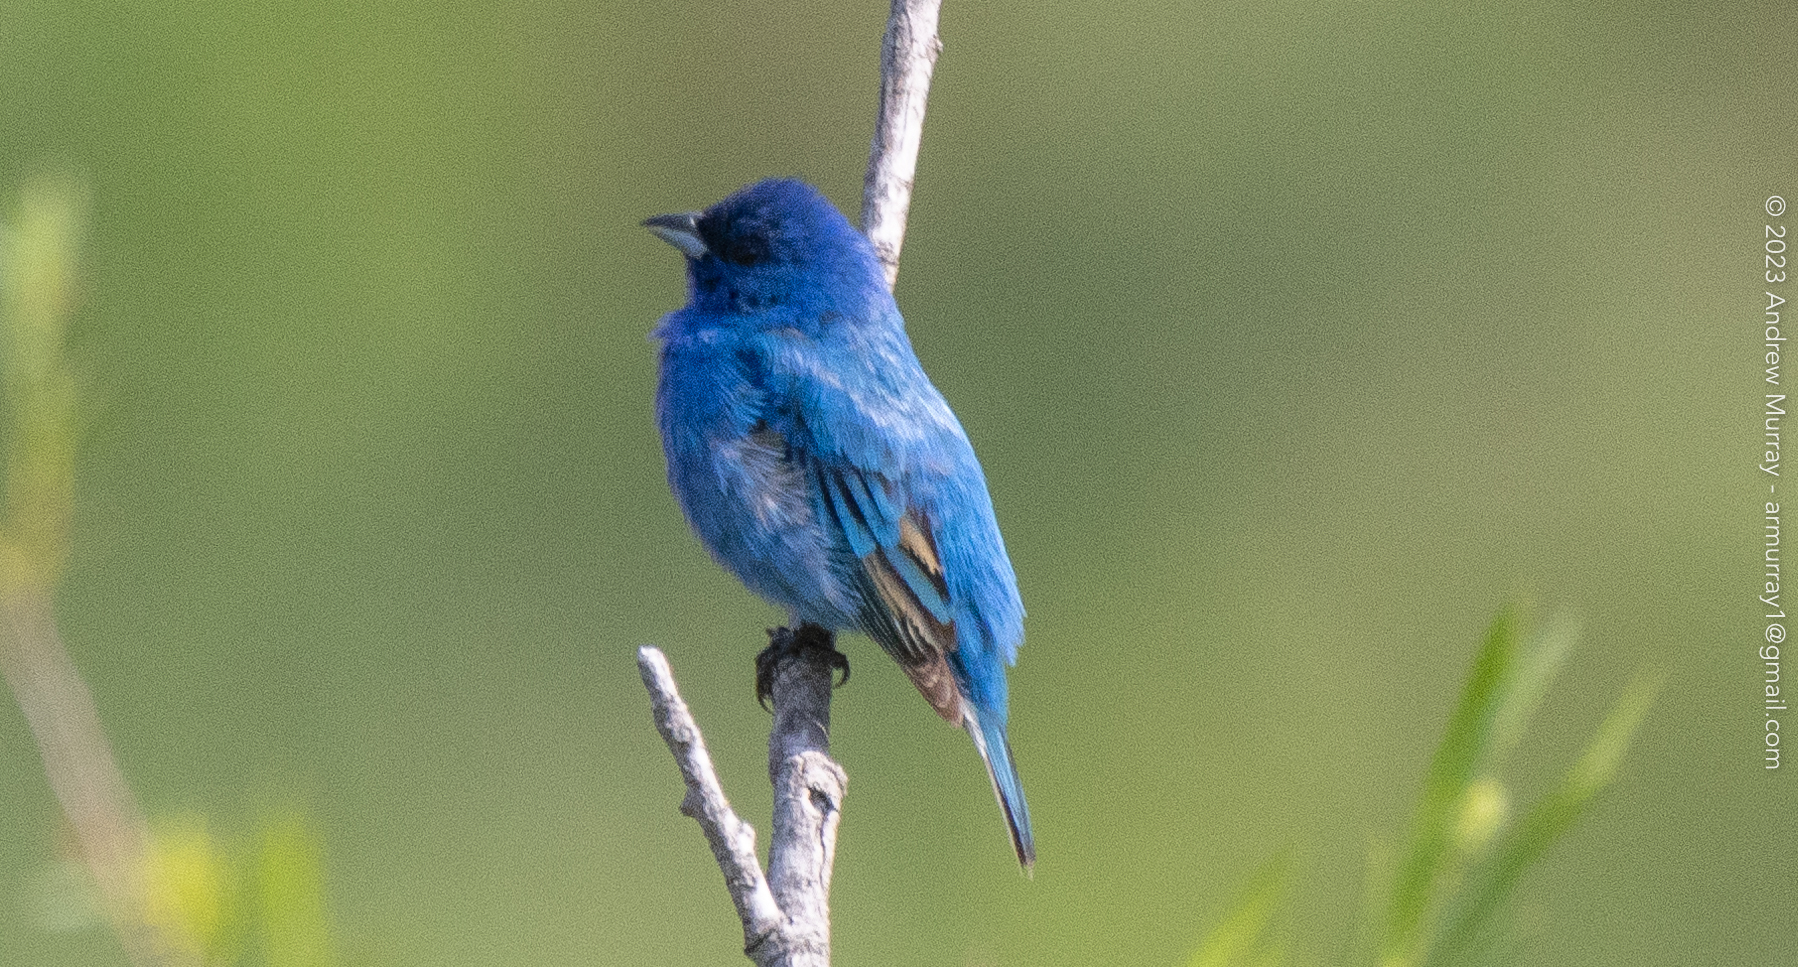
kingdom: Animalia
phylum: Chordata
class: Aves
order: Passeriformes
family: Cardinalidae
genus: Passerina
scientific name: Passerina cyanea
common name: Indigo bunting
